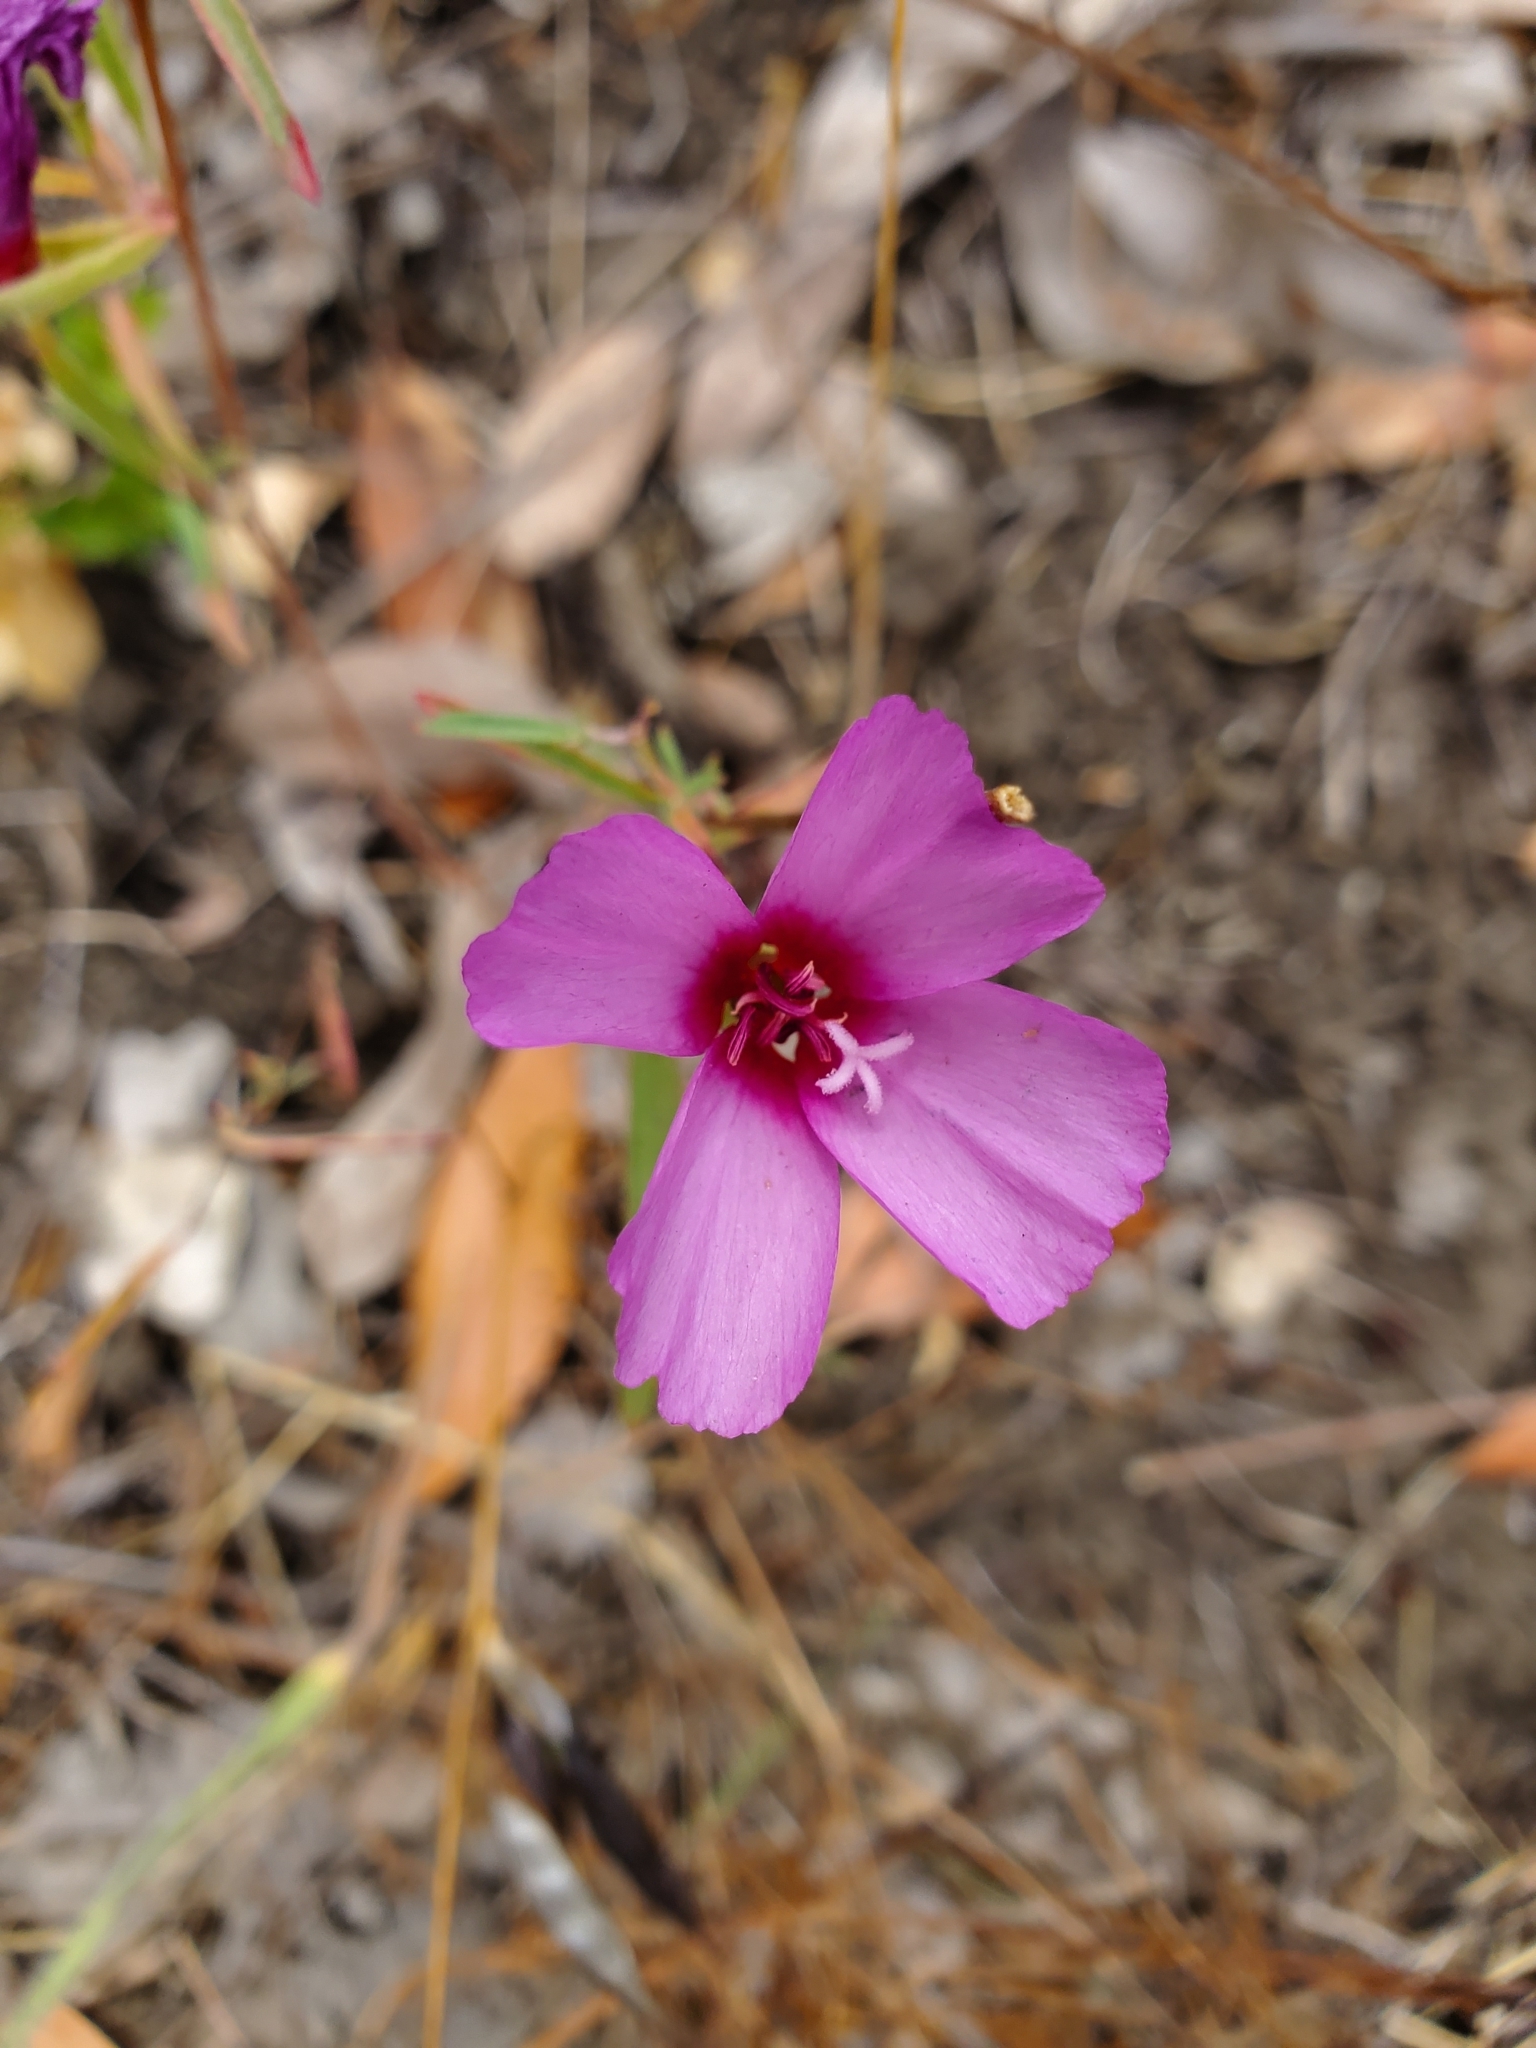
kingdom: Plantae
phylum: Tracheophyta
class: Magnoliopsida
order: Myrtales
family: Onagraceae
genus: Clarkia
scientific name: Clarkia rubicunda
